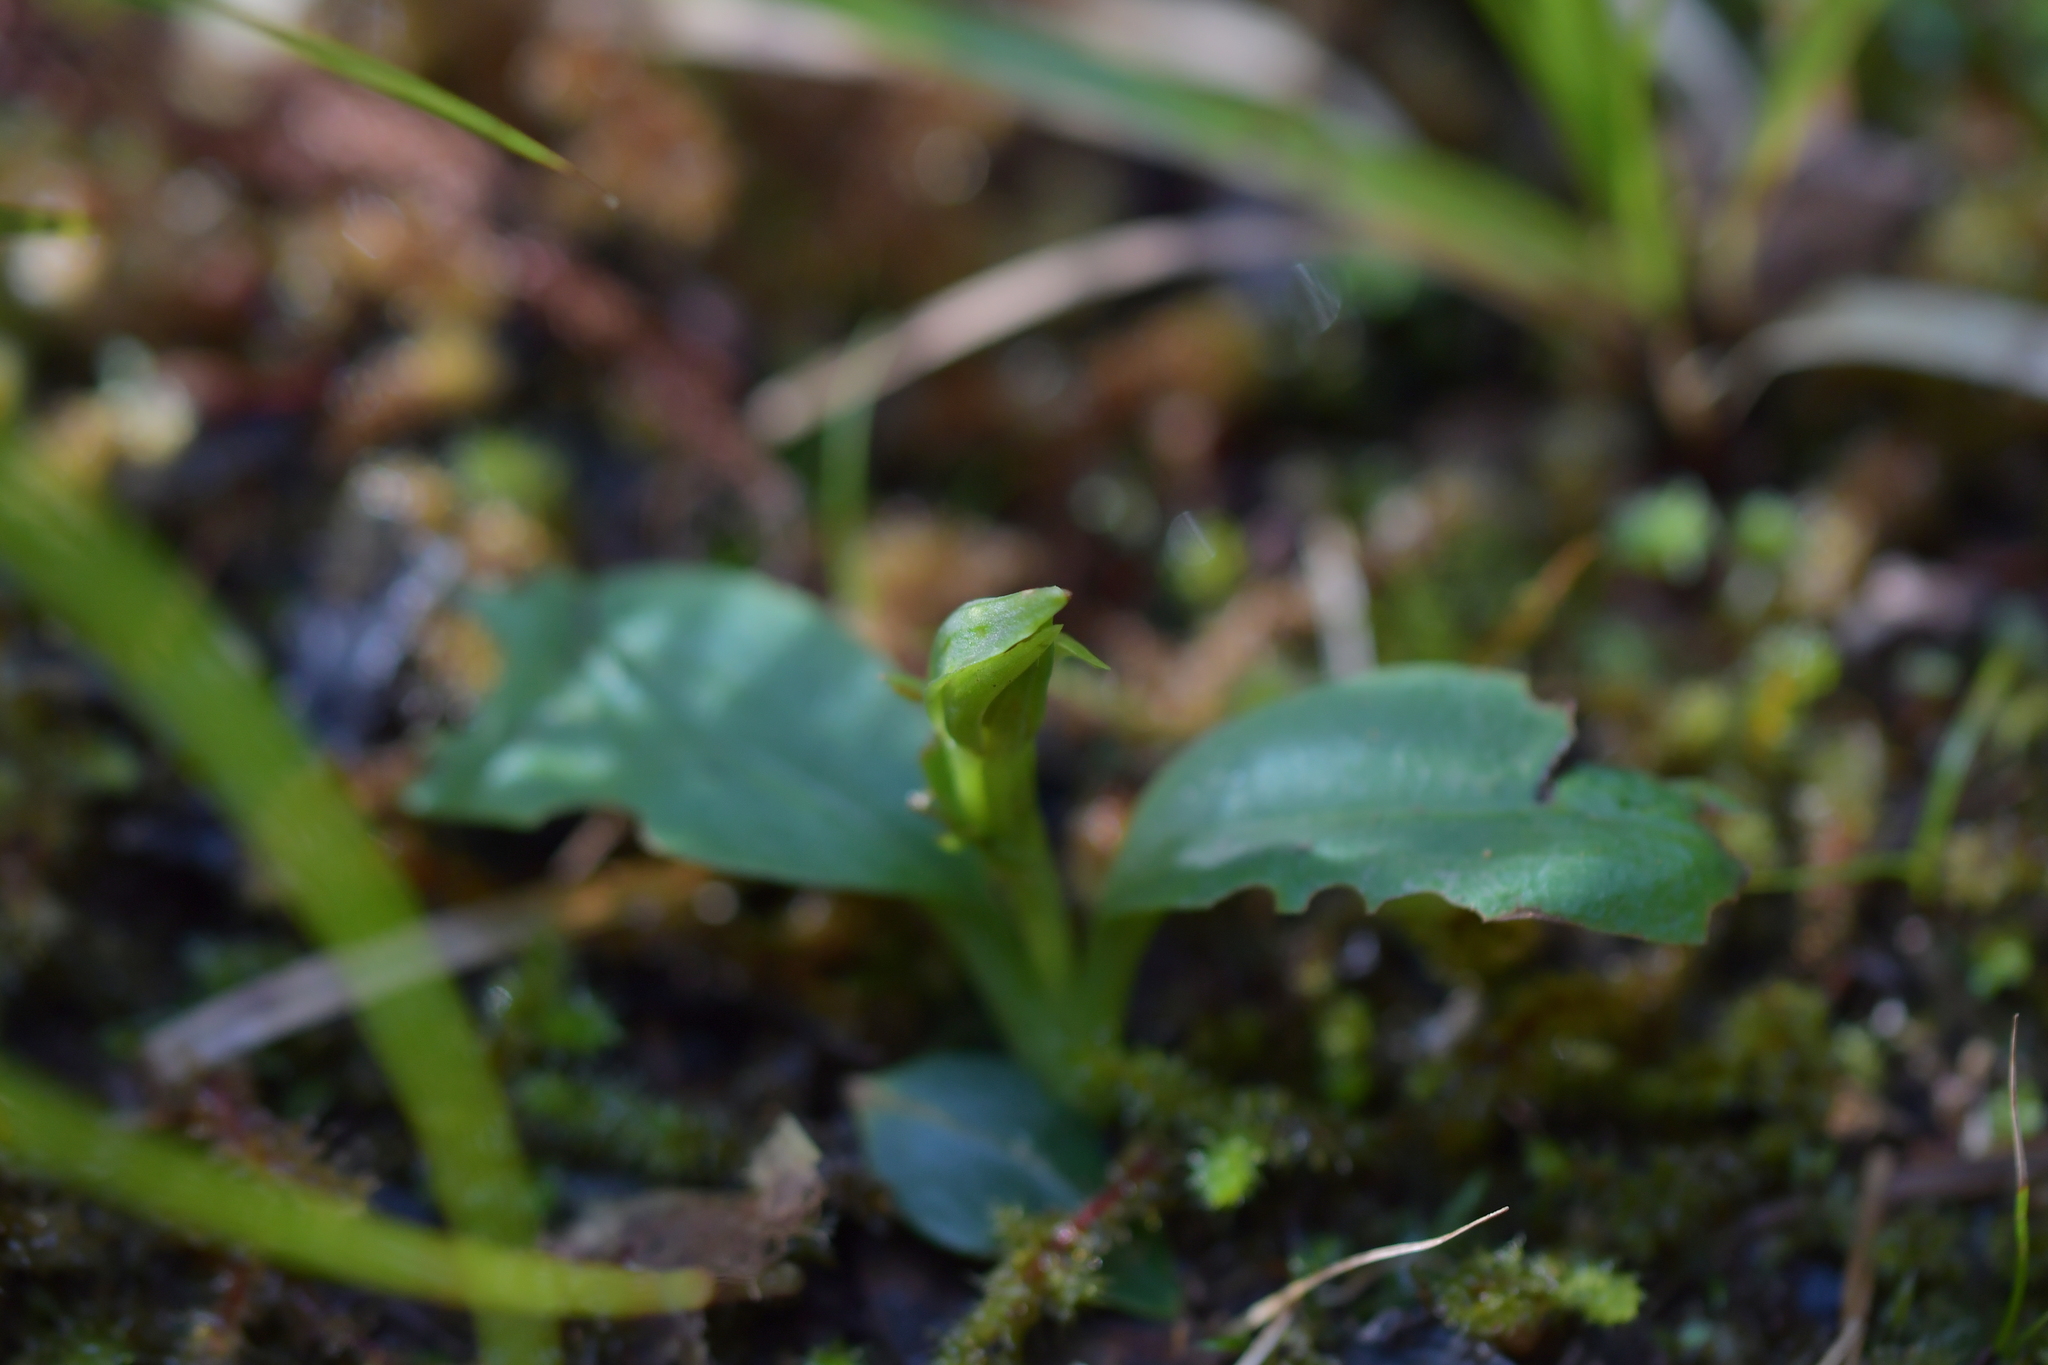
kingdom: Plantae
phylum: Tracheophyta
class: Liliopsida
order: Asparagales
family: Orchidaceae
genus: Chiloglottis
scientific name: Chiloglottis cornuta
